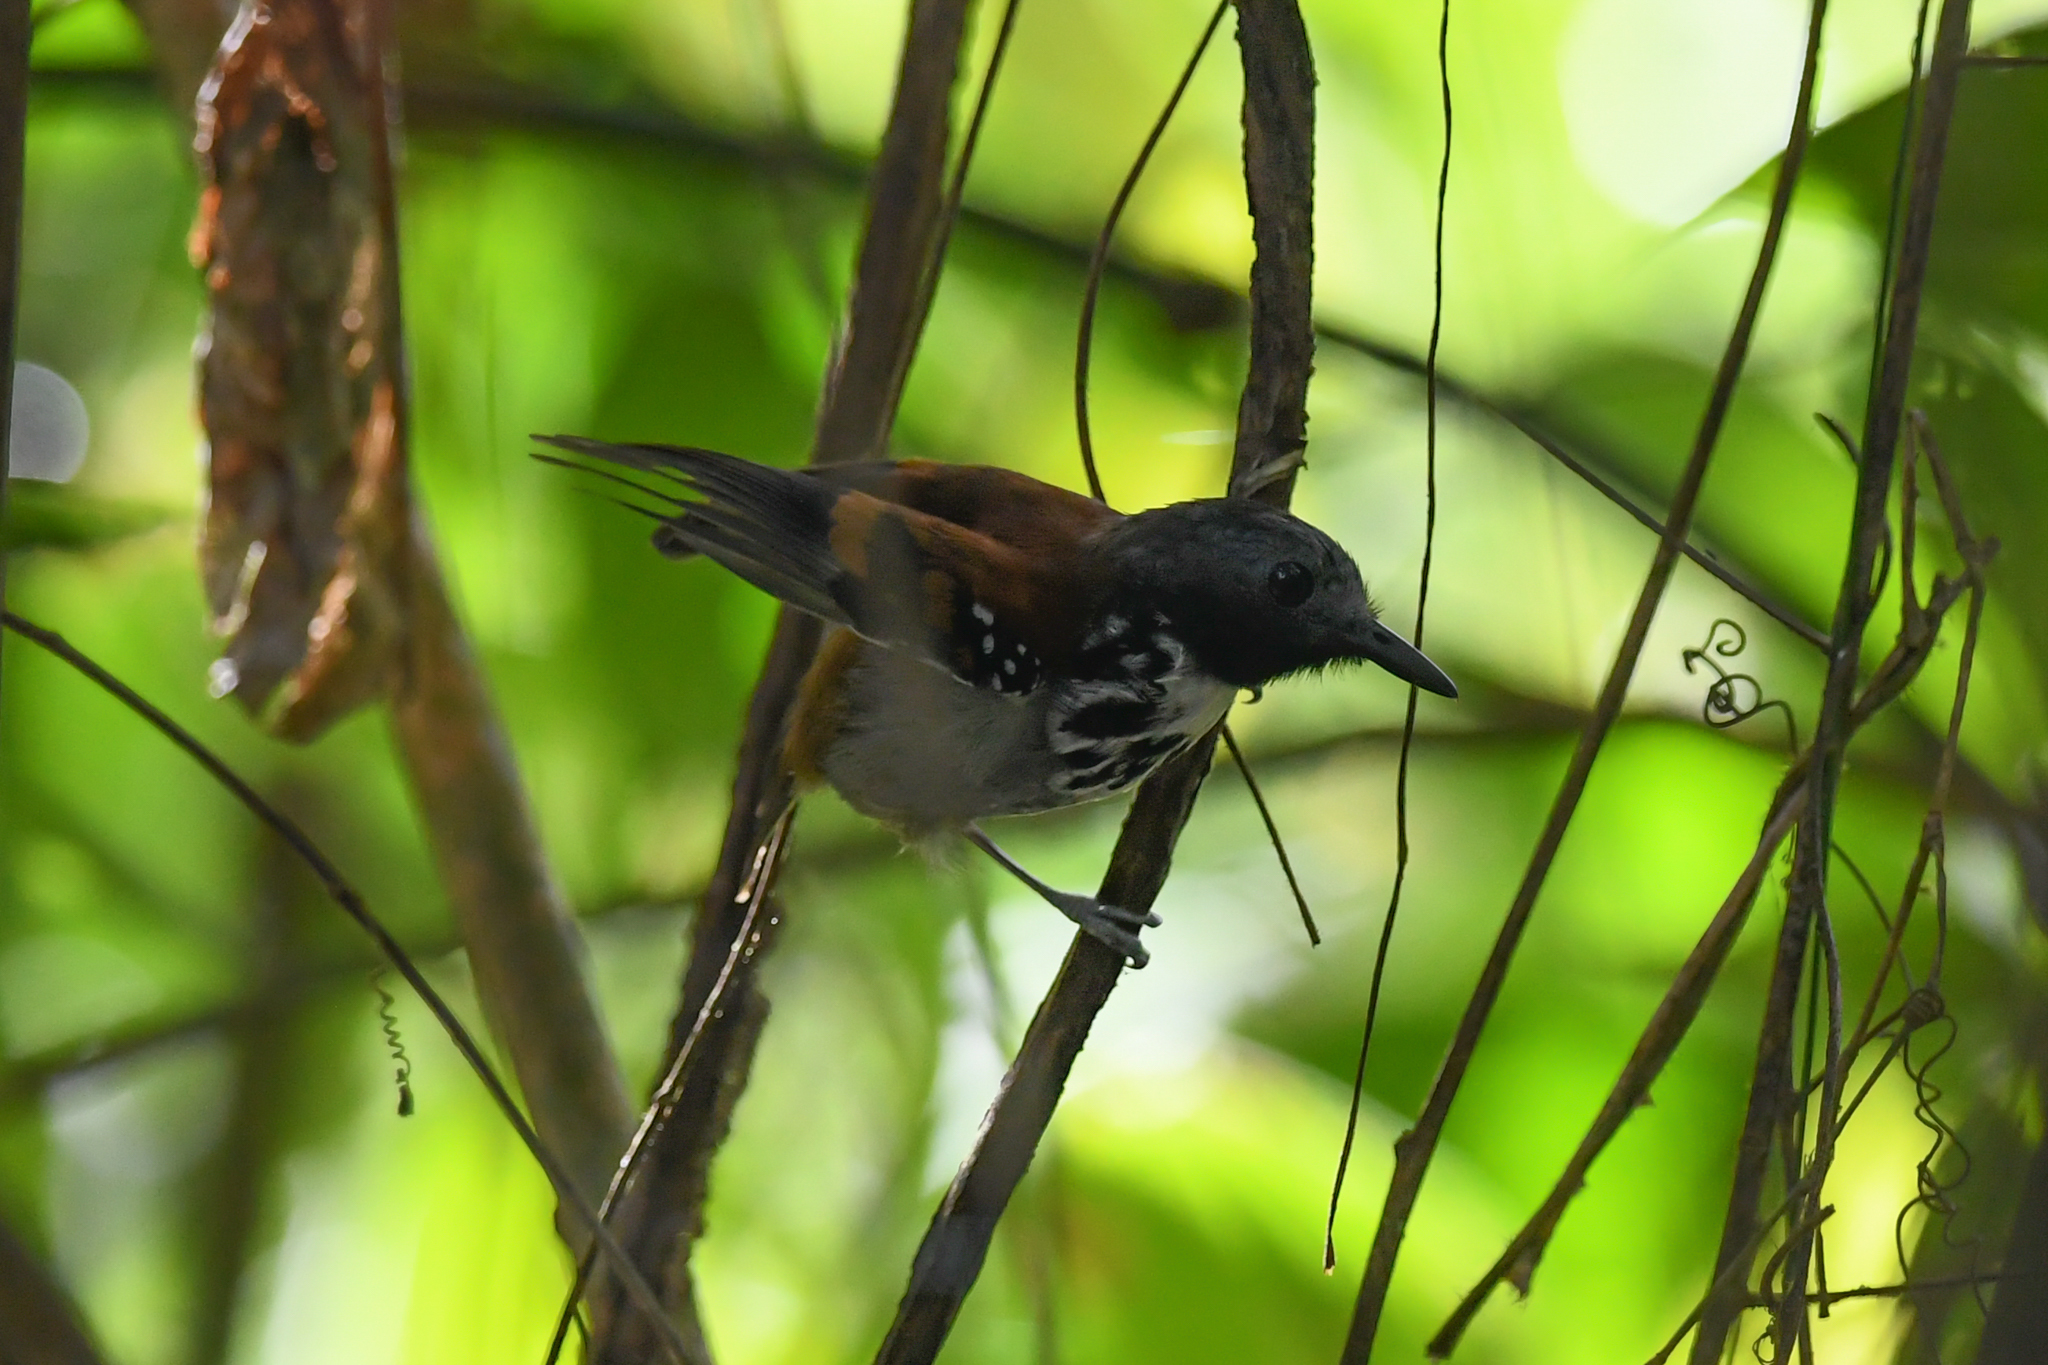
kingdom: Animalia
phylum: Chordata
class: Aves
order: Passeriformes
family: Thamnophilidae
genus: Hylophylax
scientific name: Hylophylax naevioides
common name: Spotted antbird
